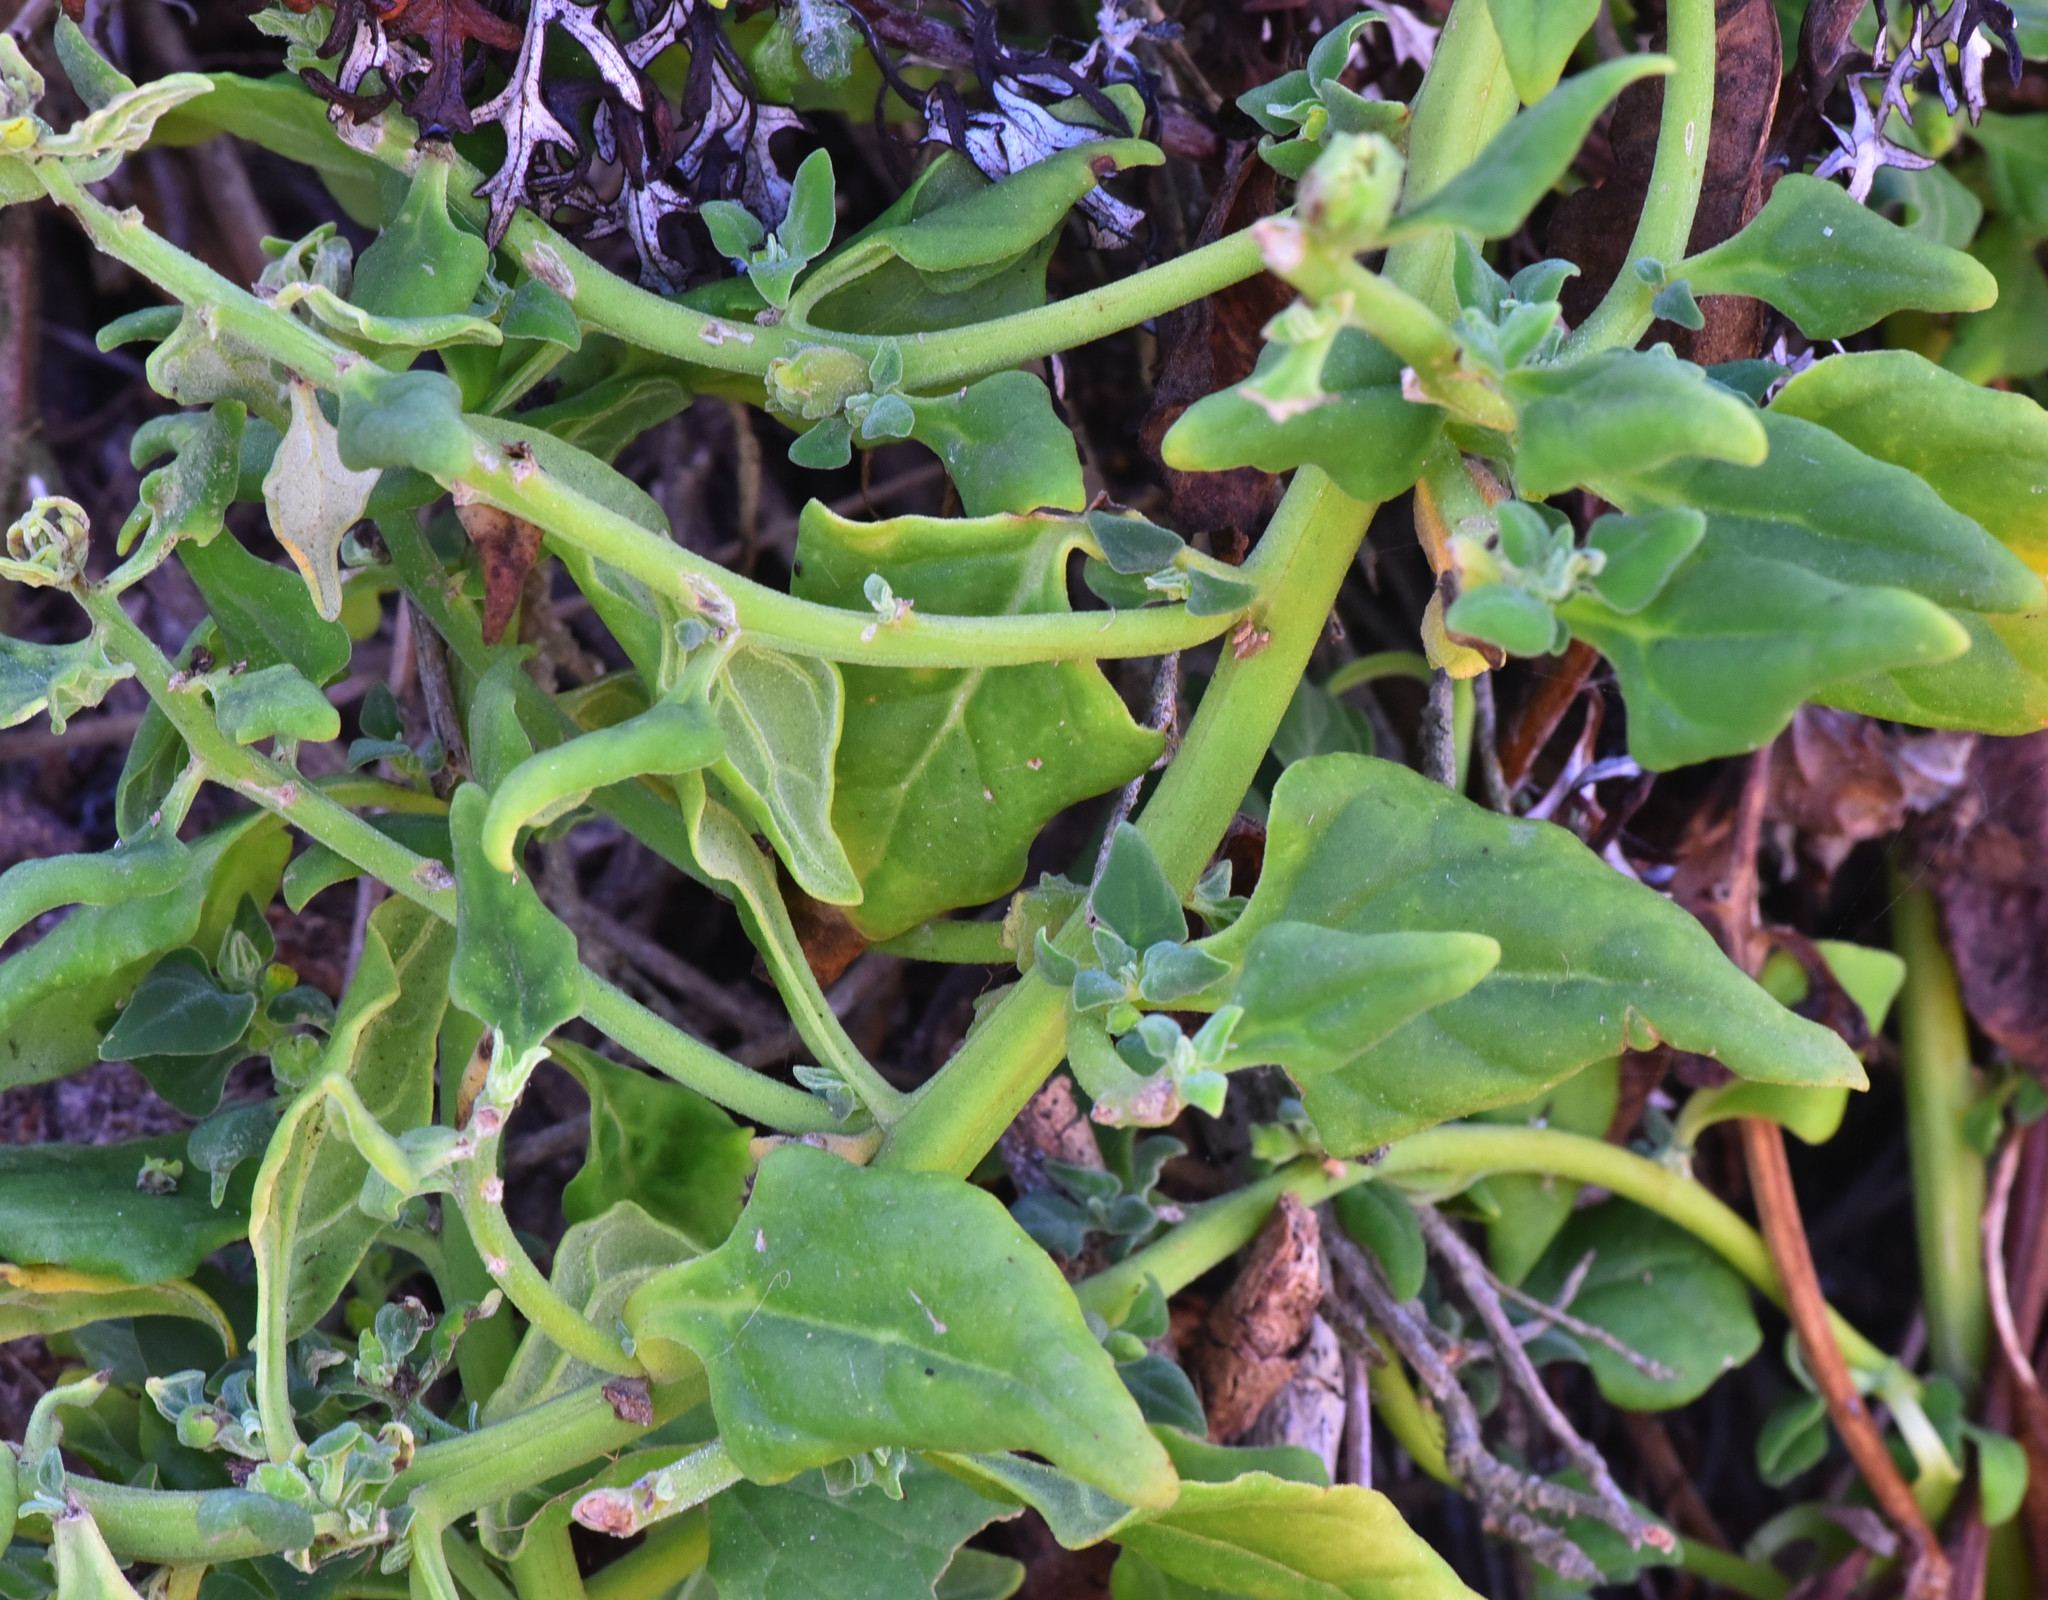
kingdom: Plantae
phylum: Tracheophyta
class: Magnoliopsida
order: Caryophyllales
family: Aizoaceae
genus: Tetragonia
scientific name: Tetragonia tetragonoides
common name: New zealand-spinach
